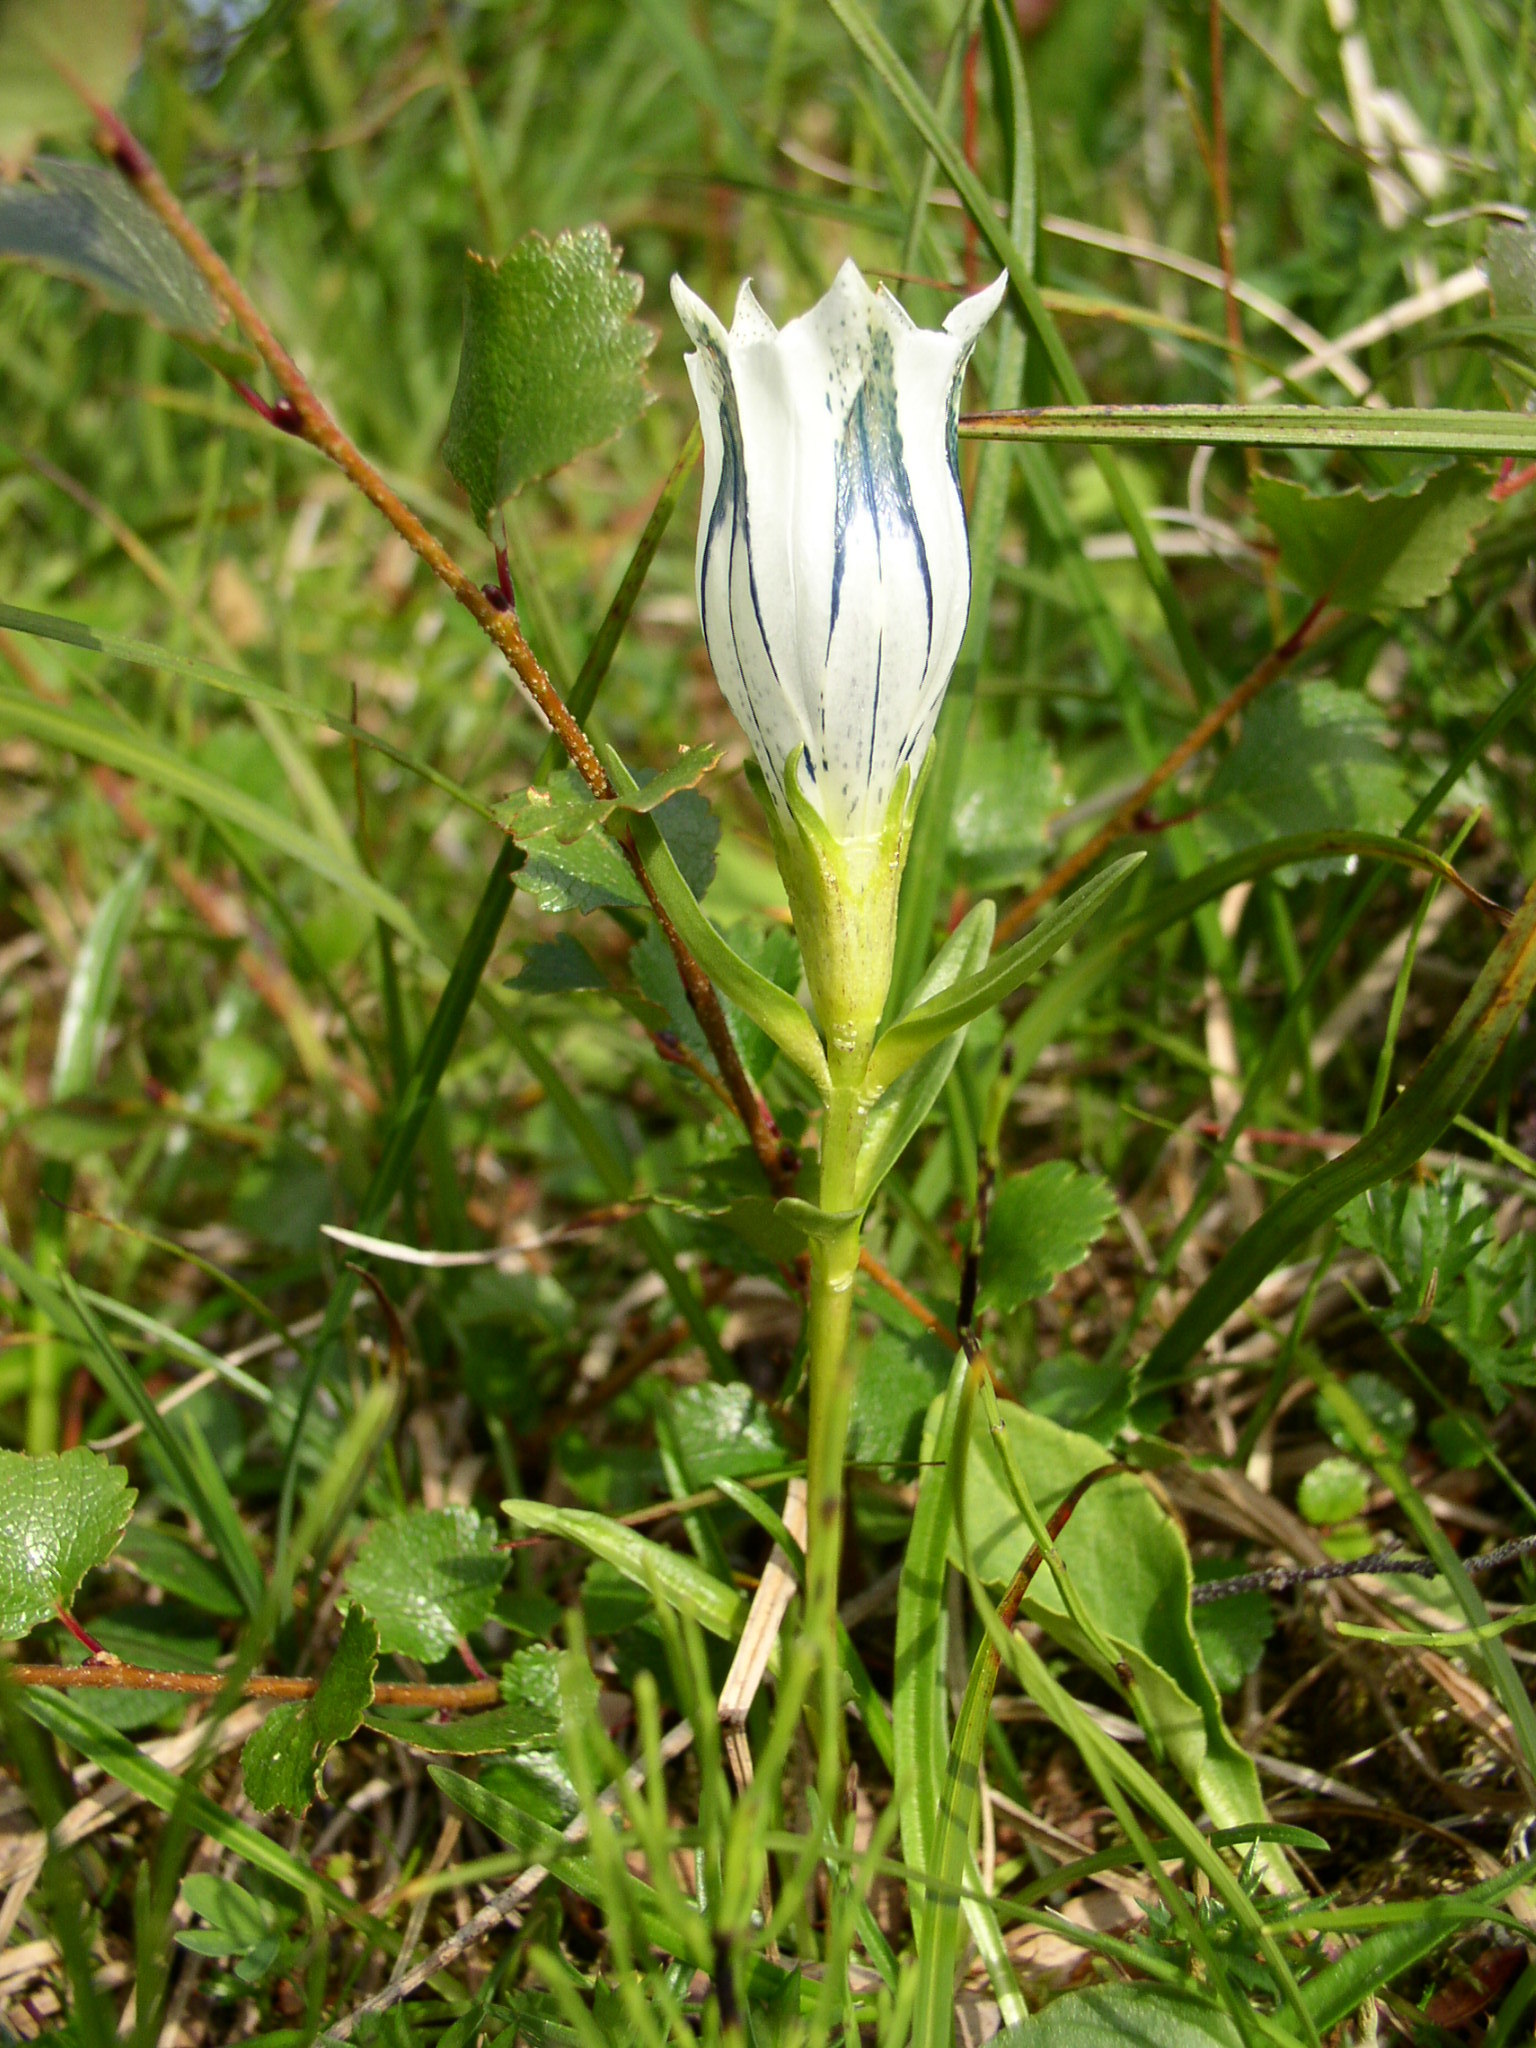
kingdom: Plantae
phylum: Tracheophyta
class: Magnoliopsida
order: Gentianales
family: Gentianaceae
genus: Gentiana
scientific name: Gentiana algida
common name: Arctic gentian
